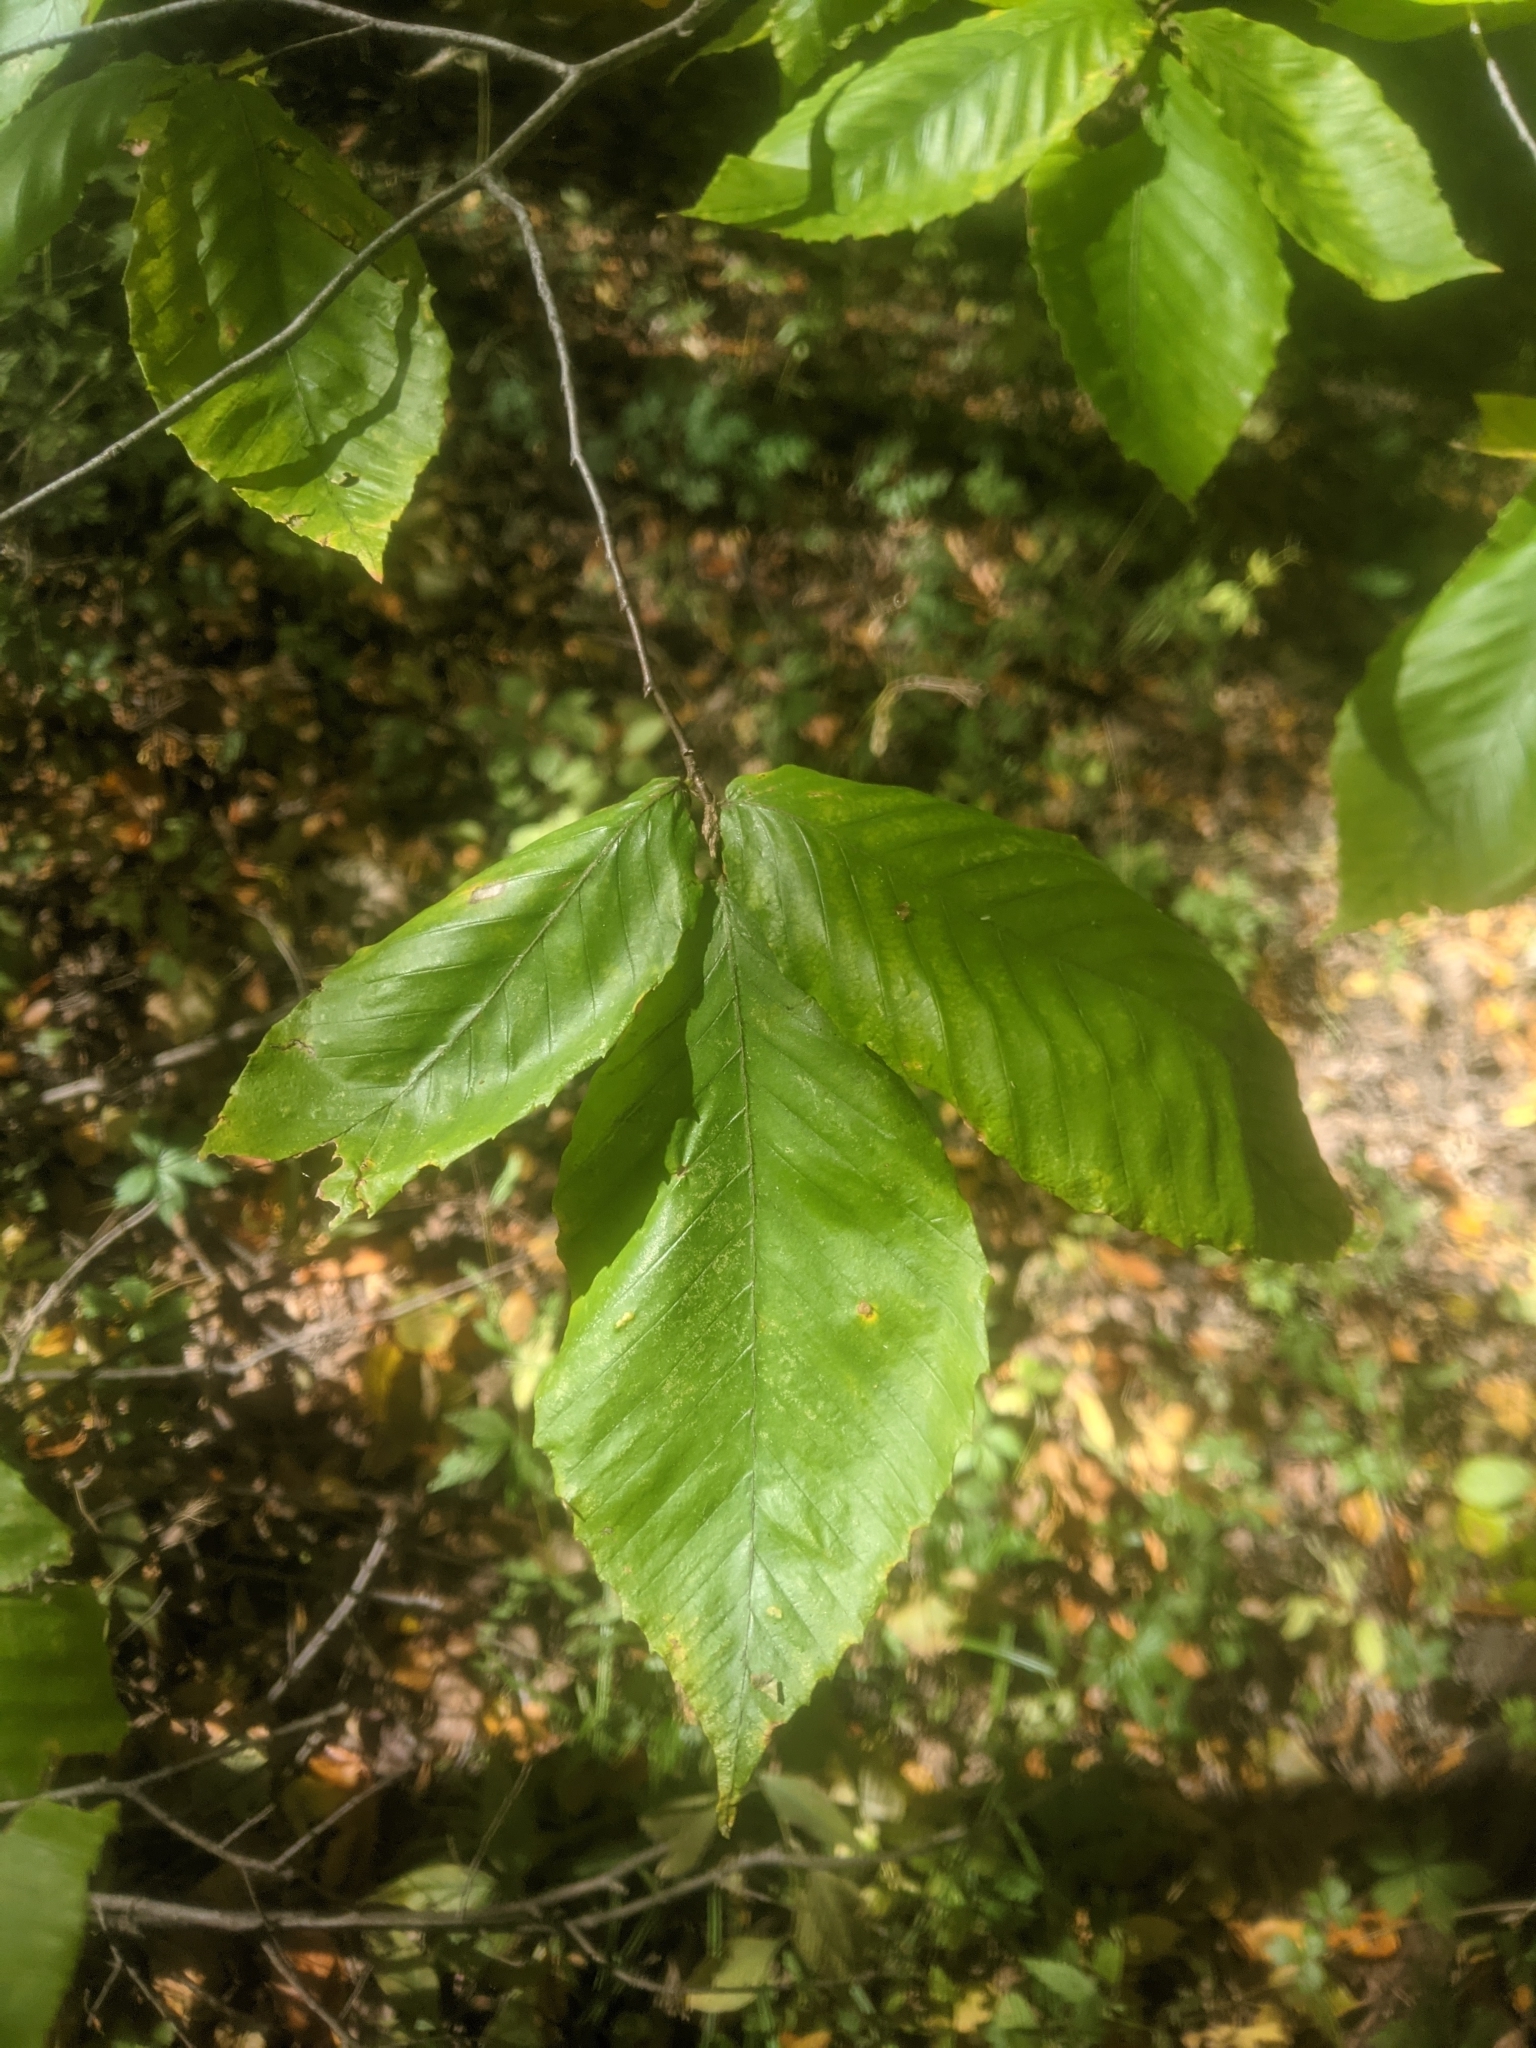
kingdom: Plantae
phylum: Tracheophyta
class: Magnoliopsida
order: Fagales
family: Fagaceae
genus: Fagus
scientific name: Fagus grandifolia
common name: American beech
